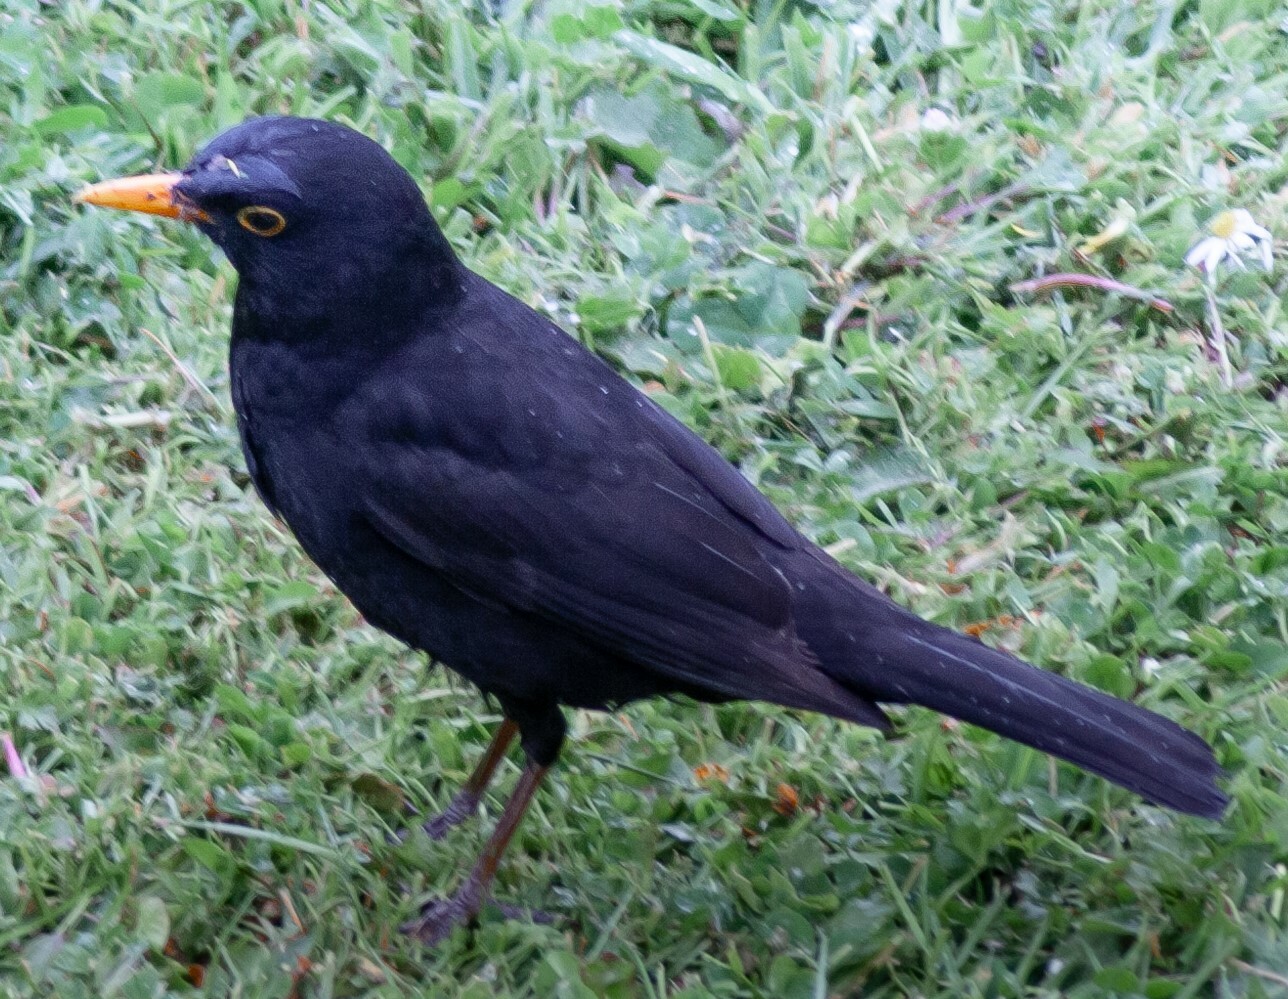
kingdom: Animalia
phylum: Chordata
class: Aves
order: Passeriformes
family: Turdidae
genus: Turdus
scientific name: Turdus merula
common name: Common blackbird
